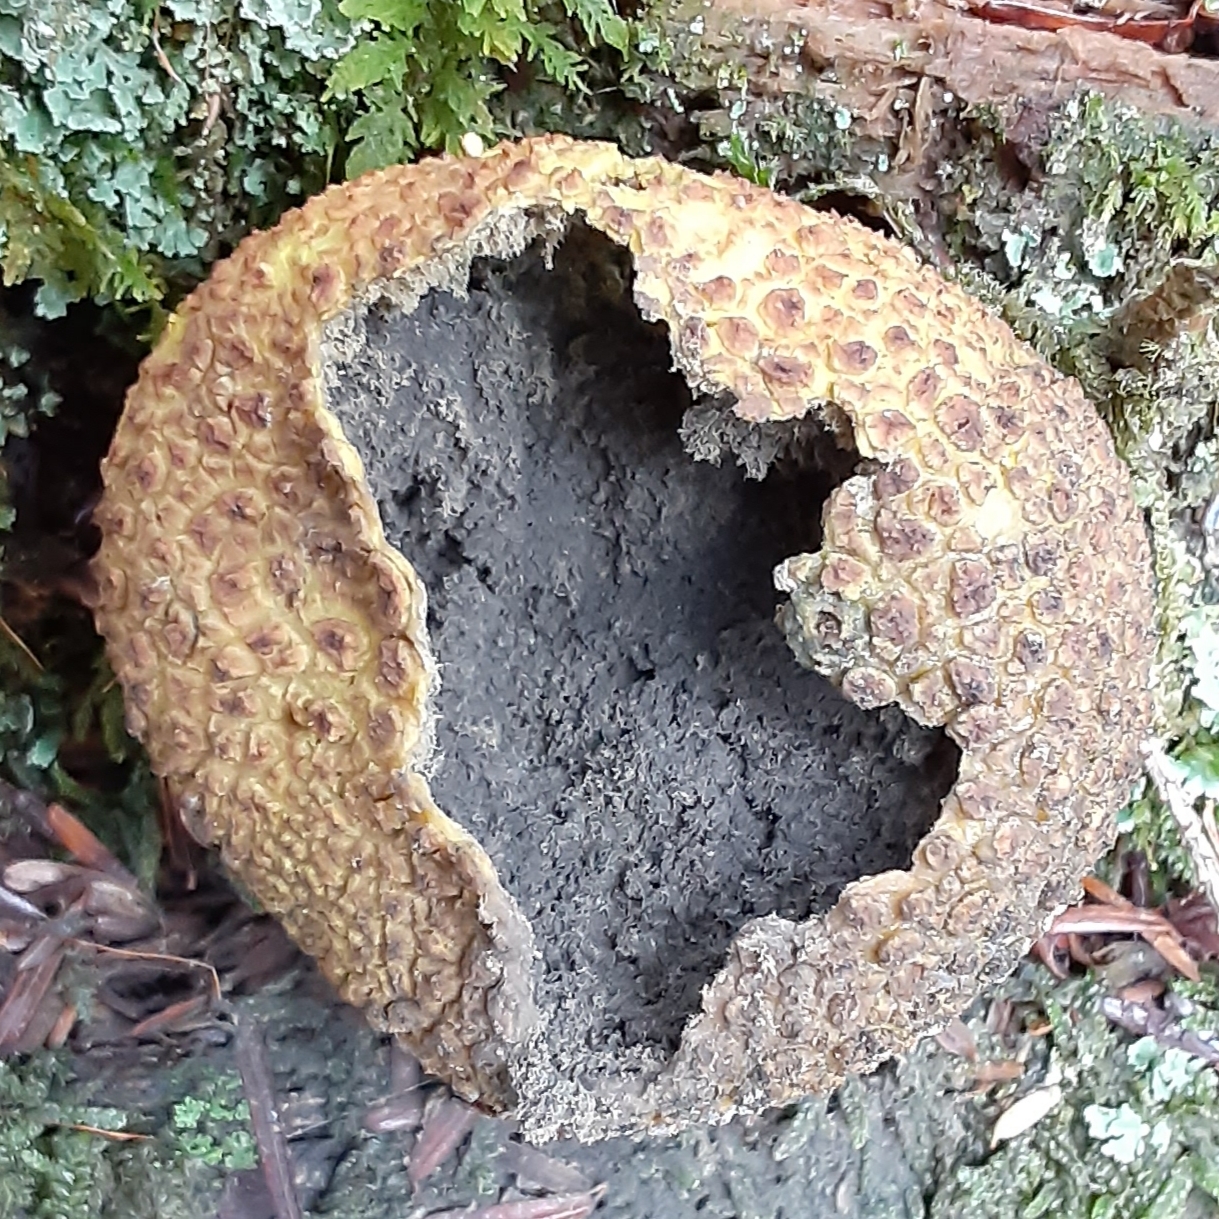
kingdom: Fungi
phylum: Basidiomycota
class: Agaricomycetes
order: Boletales
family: Sclerodermataceae
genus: Scleroderma
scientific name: Scleroderma citrinum
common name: Common earthball
